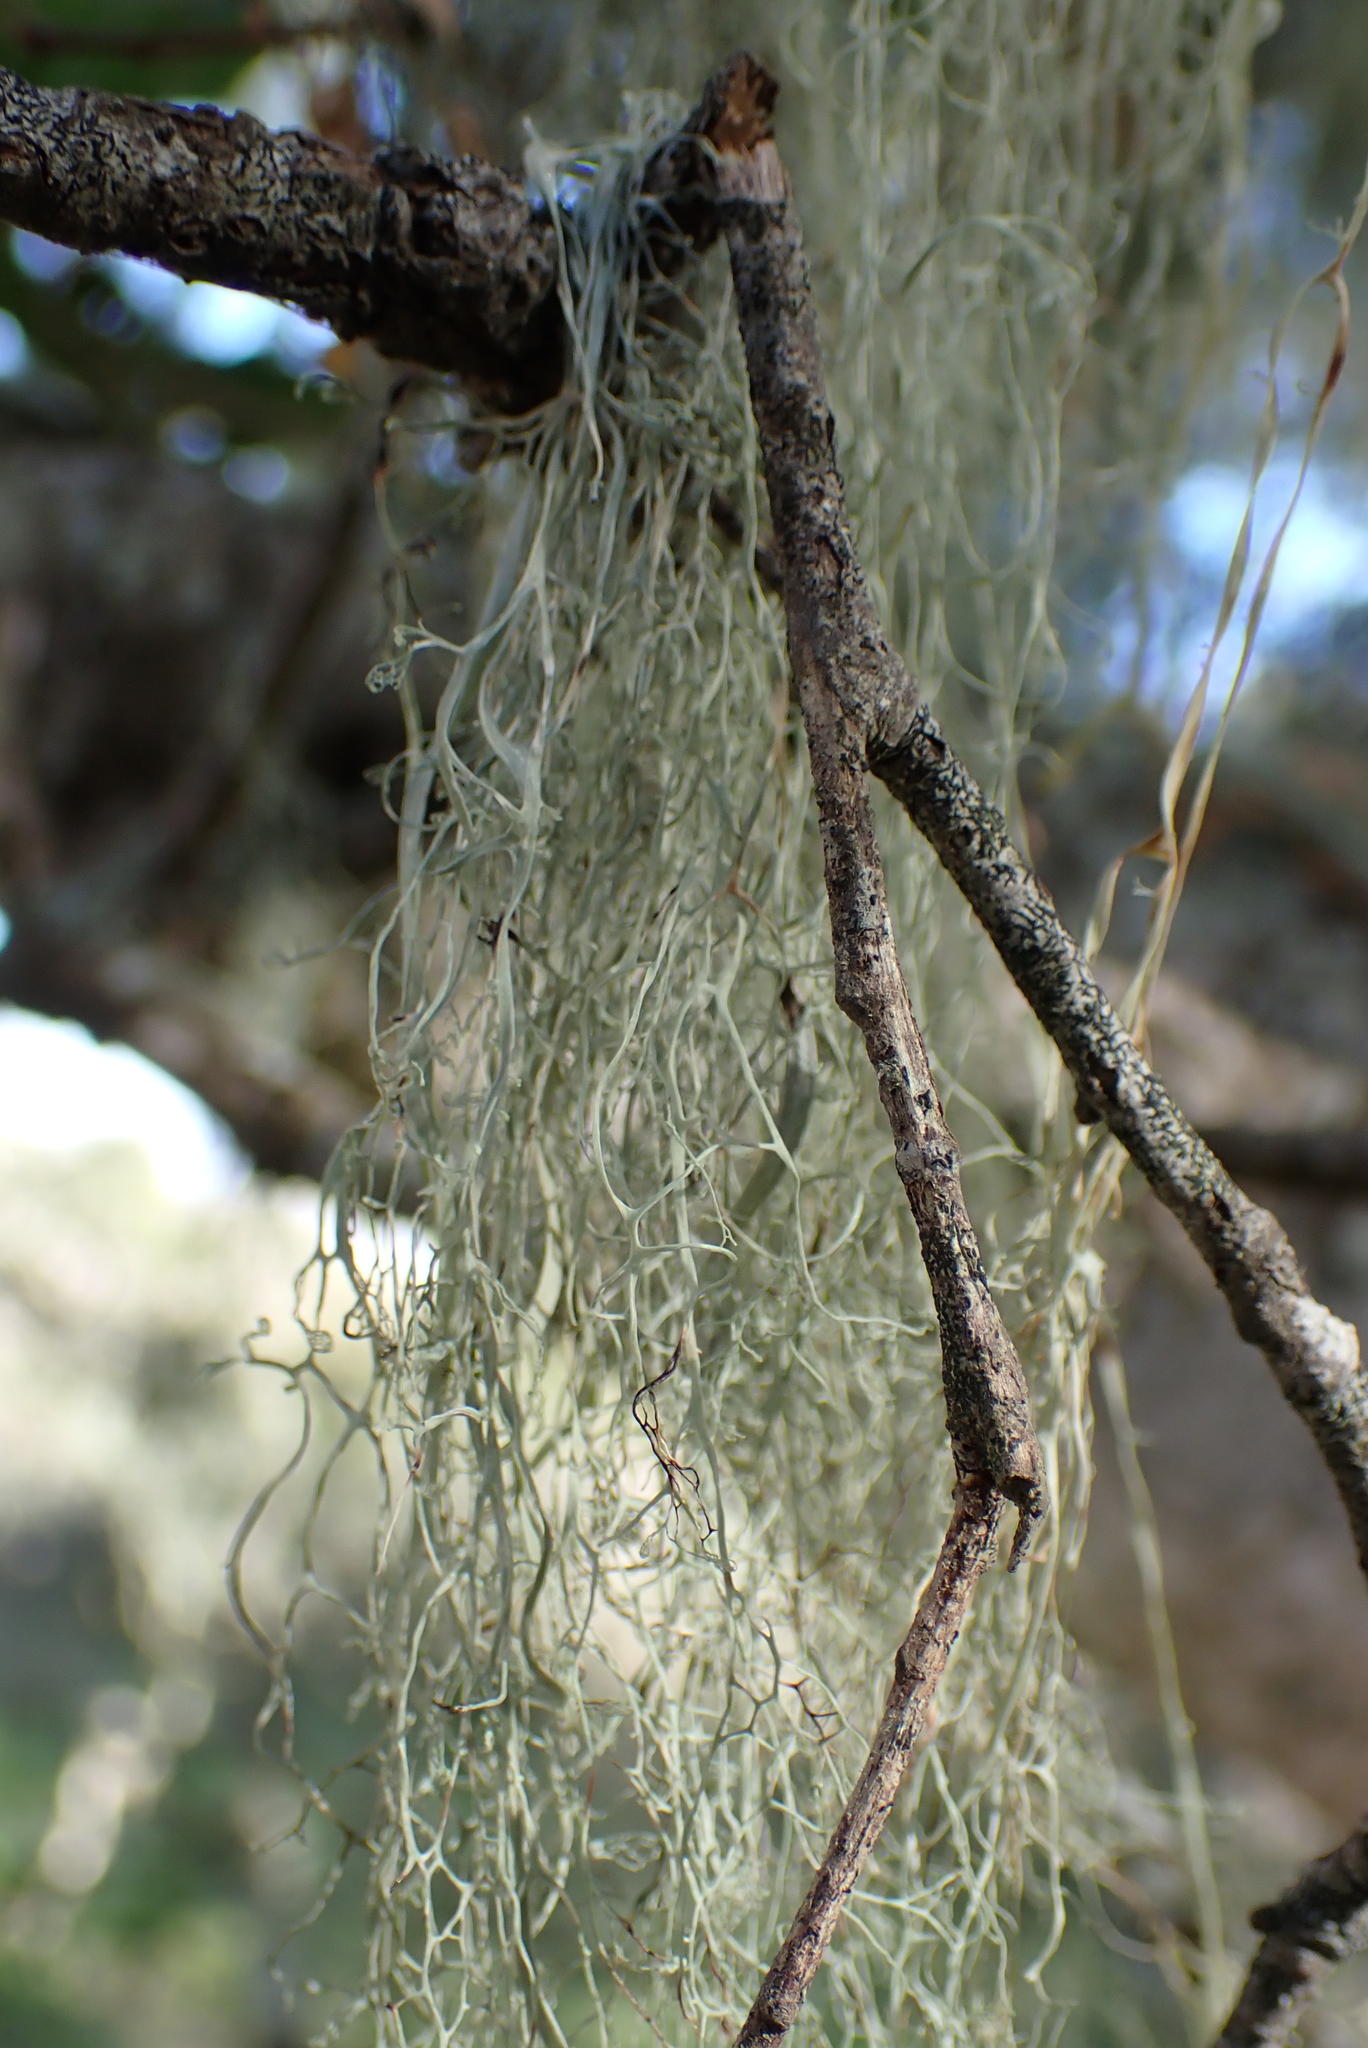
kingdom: Fungi
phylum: Ascomycota
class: Lecanoromycetes
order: Lecanorales
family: Ramalinaceae
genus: Ramalina
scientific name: Ramalina menziesii
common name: Lace lichen
